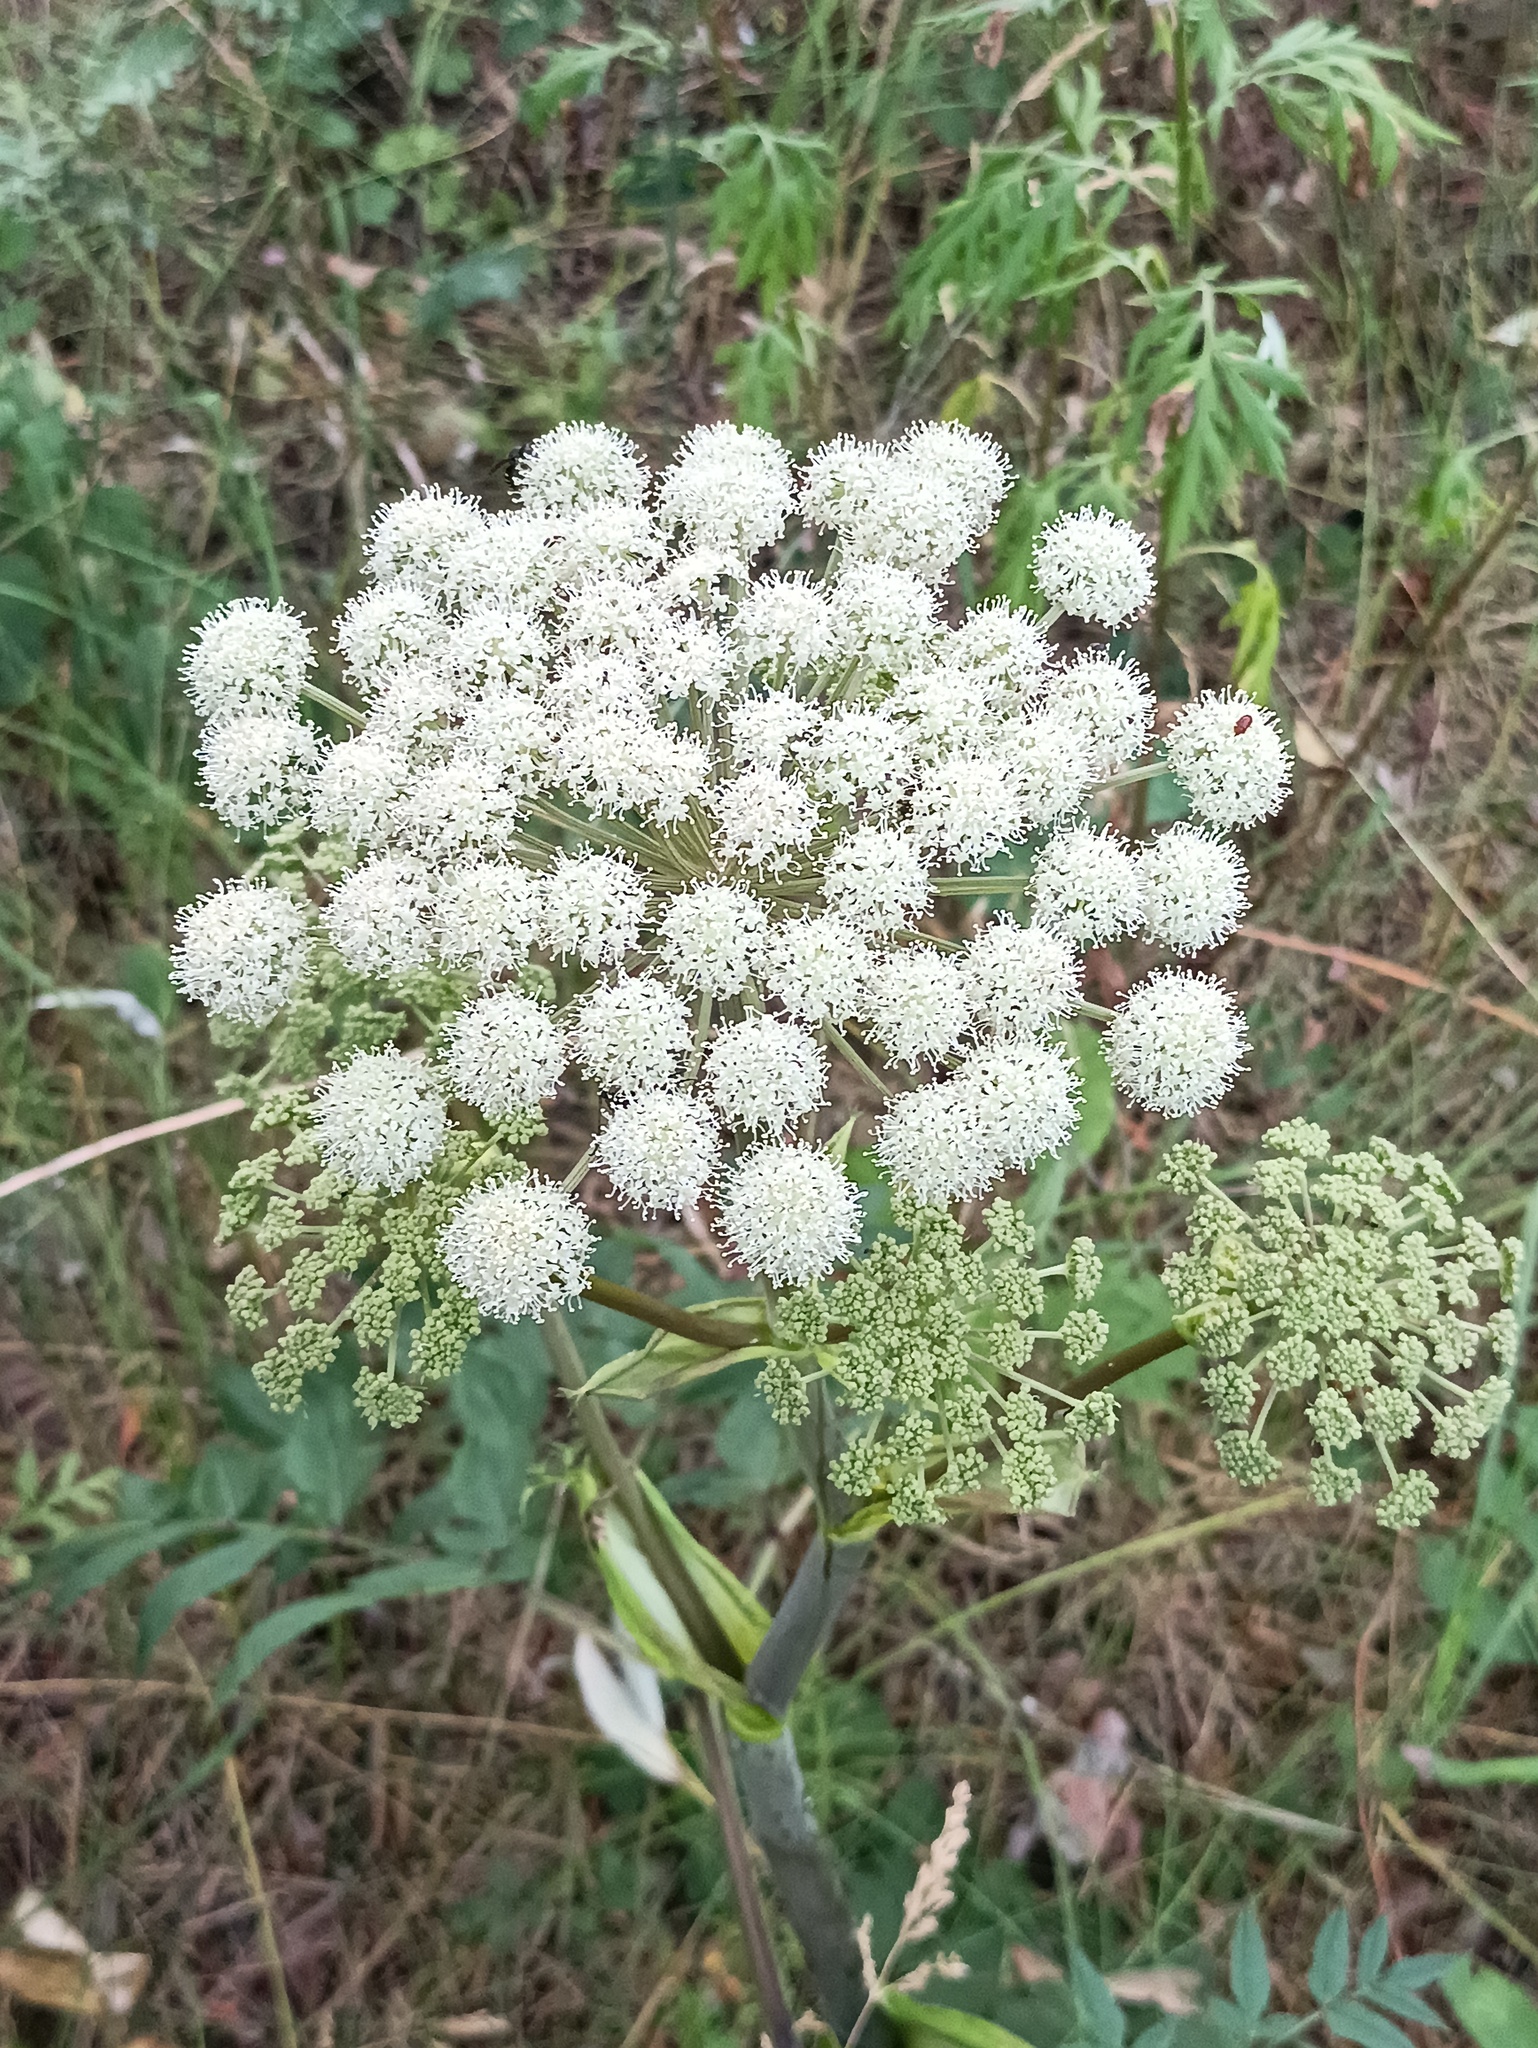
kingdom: Plantae
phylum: Tracheophyta
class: Magnoliopsida
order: Apiales
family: Apiaceae
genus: Angelica
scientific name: Angelica sylvestris
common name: Wild angelica
